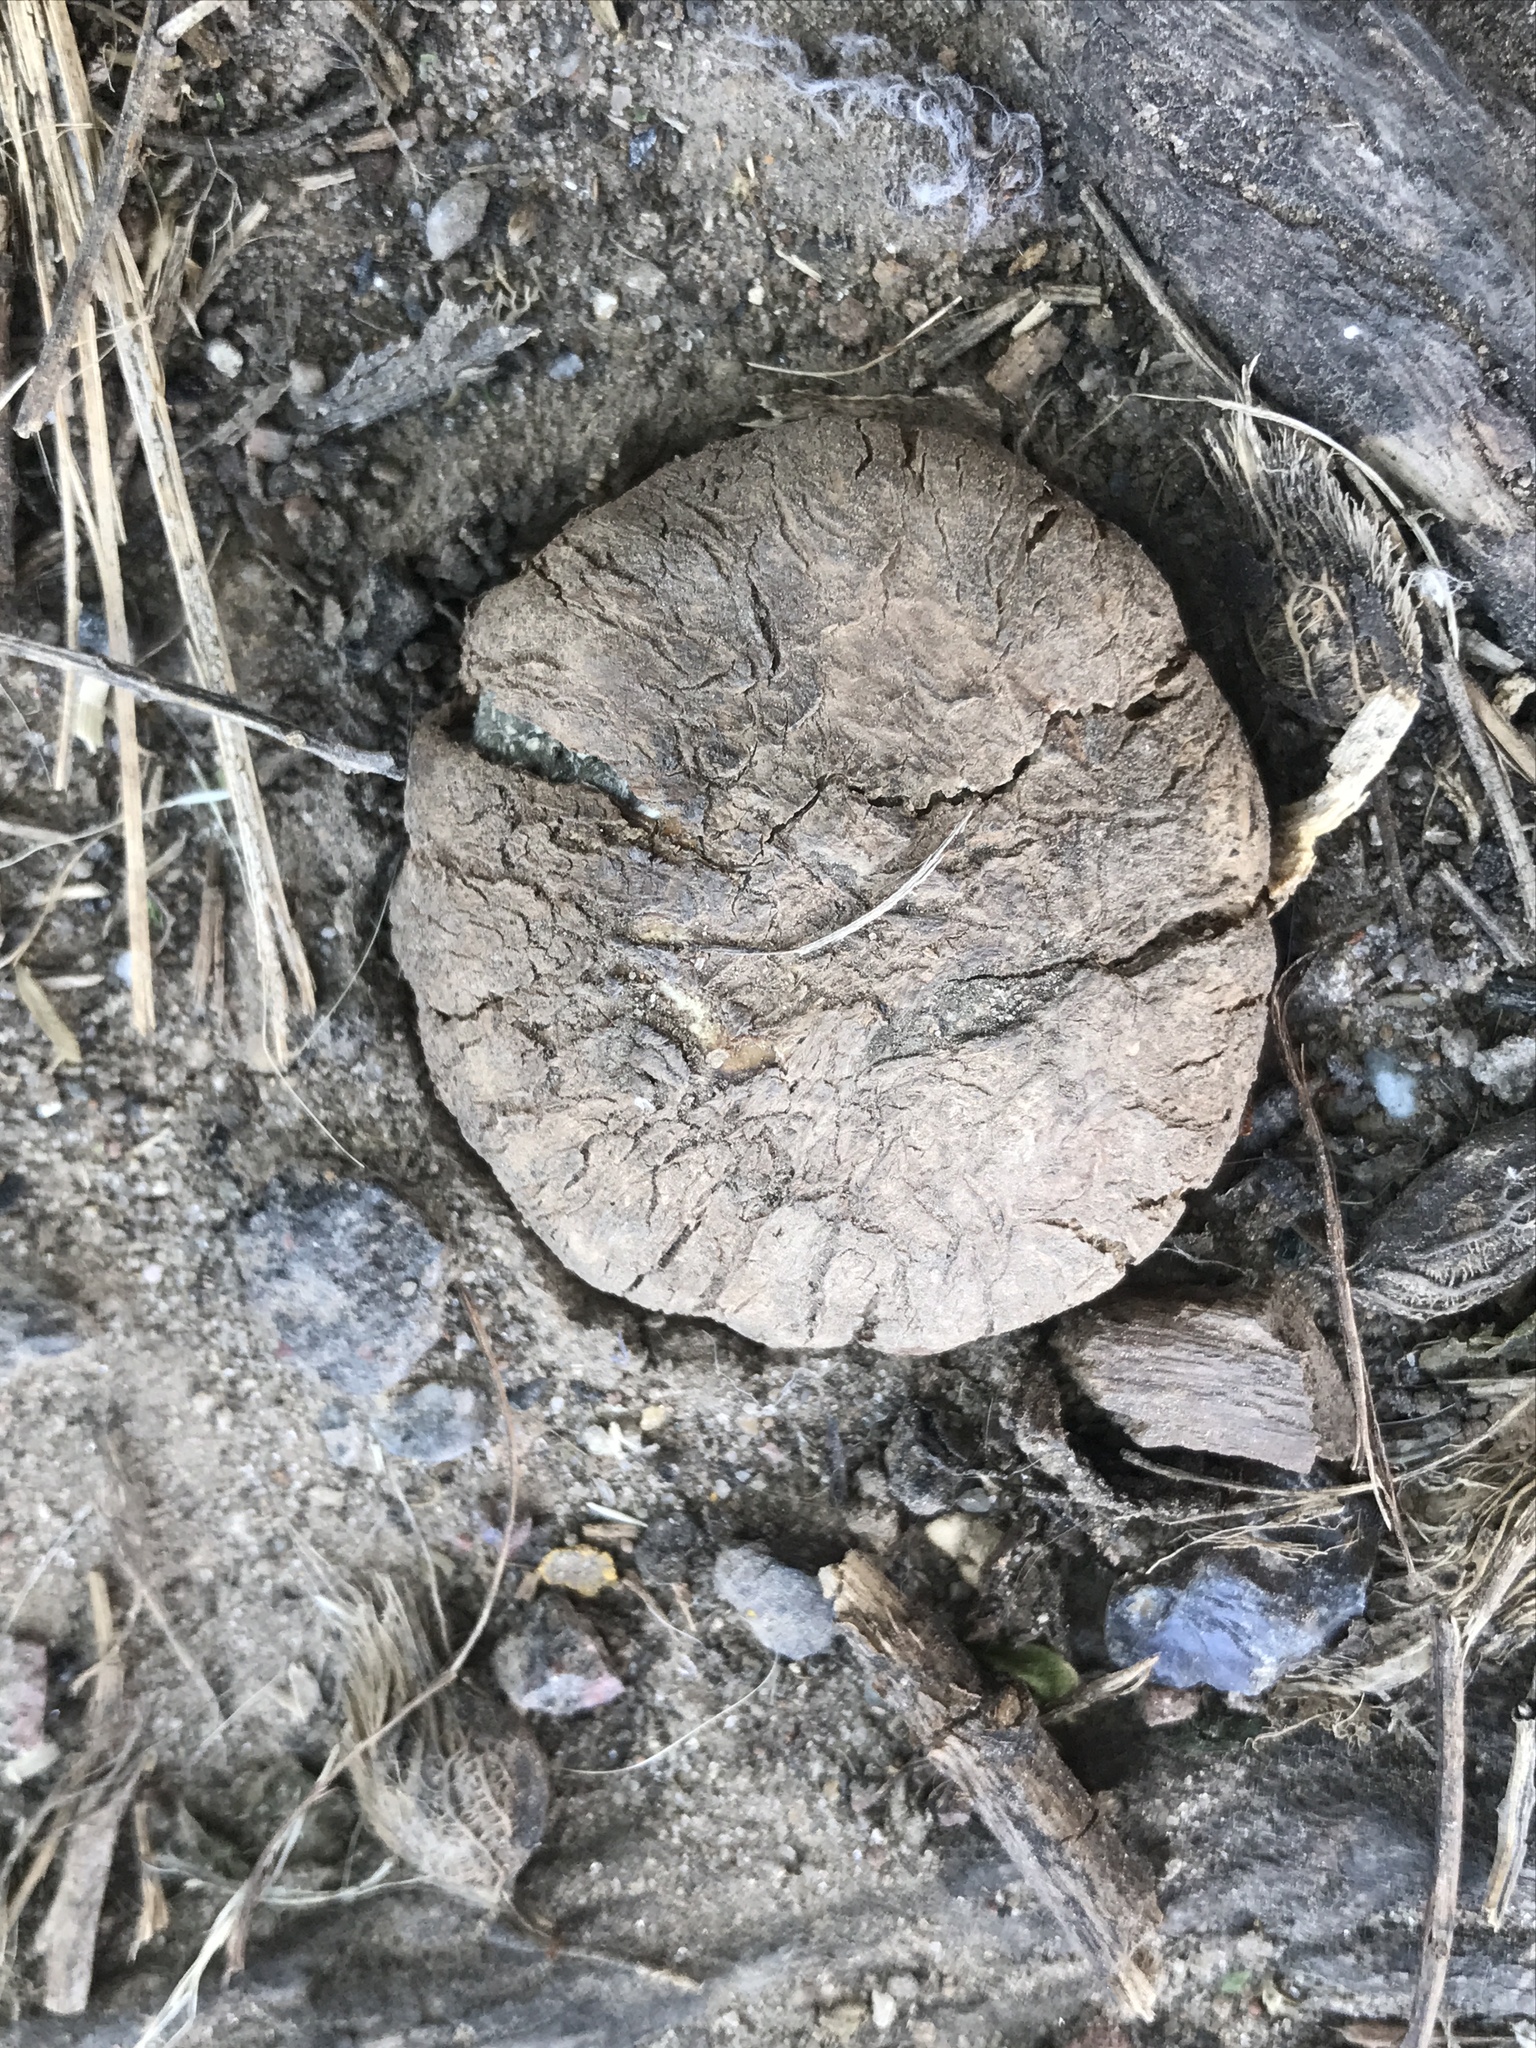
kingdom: Fungi
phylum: Basidiomycota
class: Agaricomycetes
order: Phallales
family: Phallaceae
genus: Itajahya
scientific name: Itajahya galericulata
